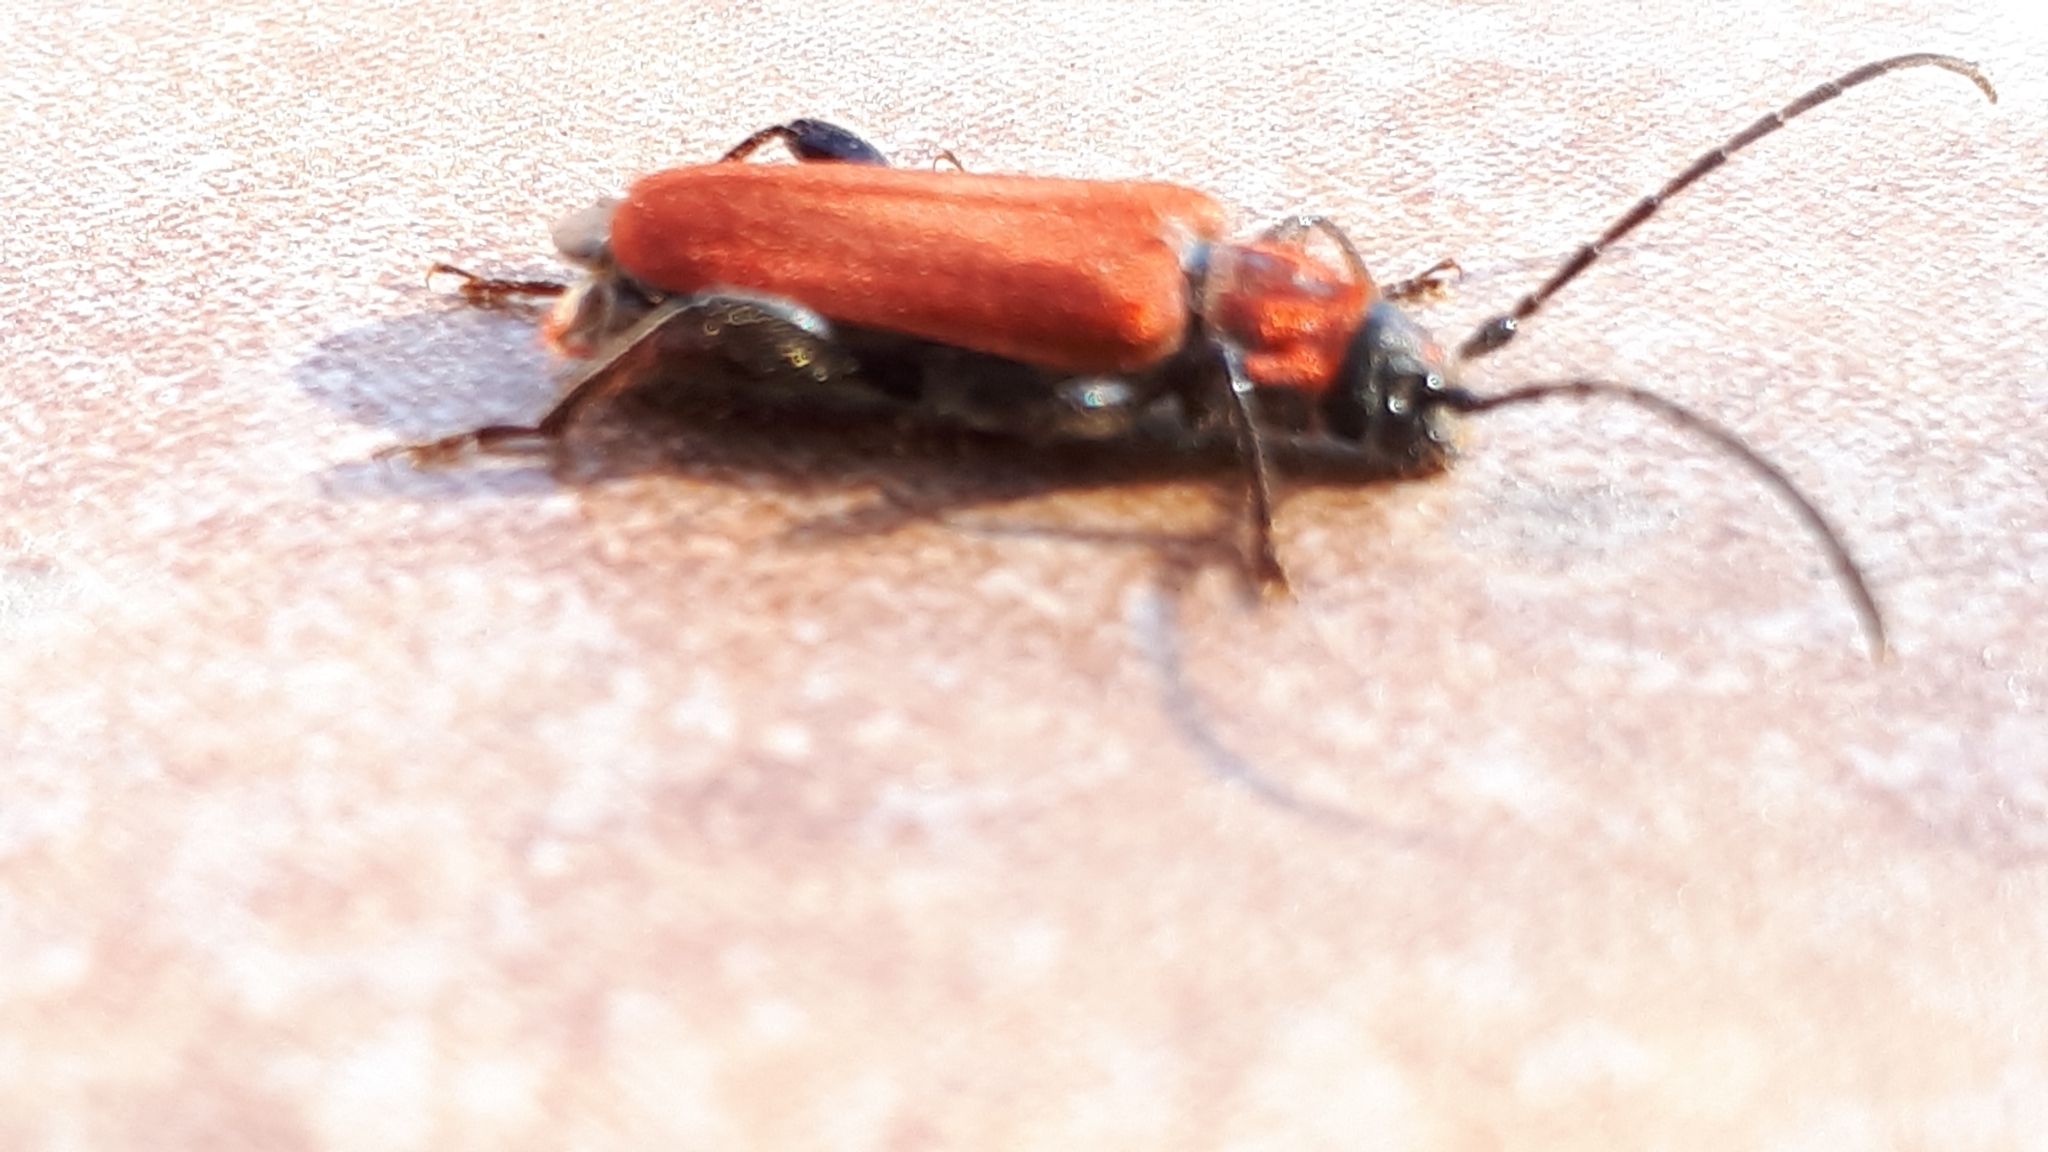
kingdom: Animalia
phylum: Arthropoda
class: Insecta
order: Coleoptera
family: Cerambycidae
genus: Pyrrhidium
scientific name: Pyrrhidium sanguineum
